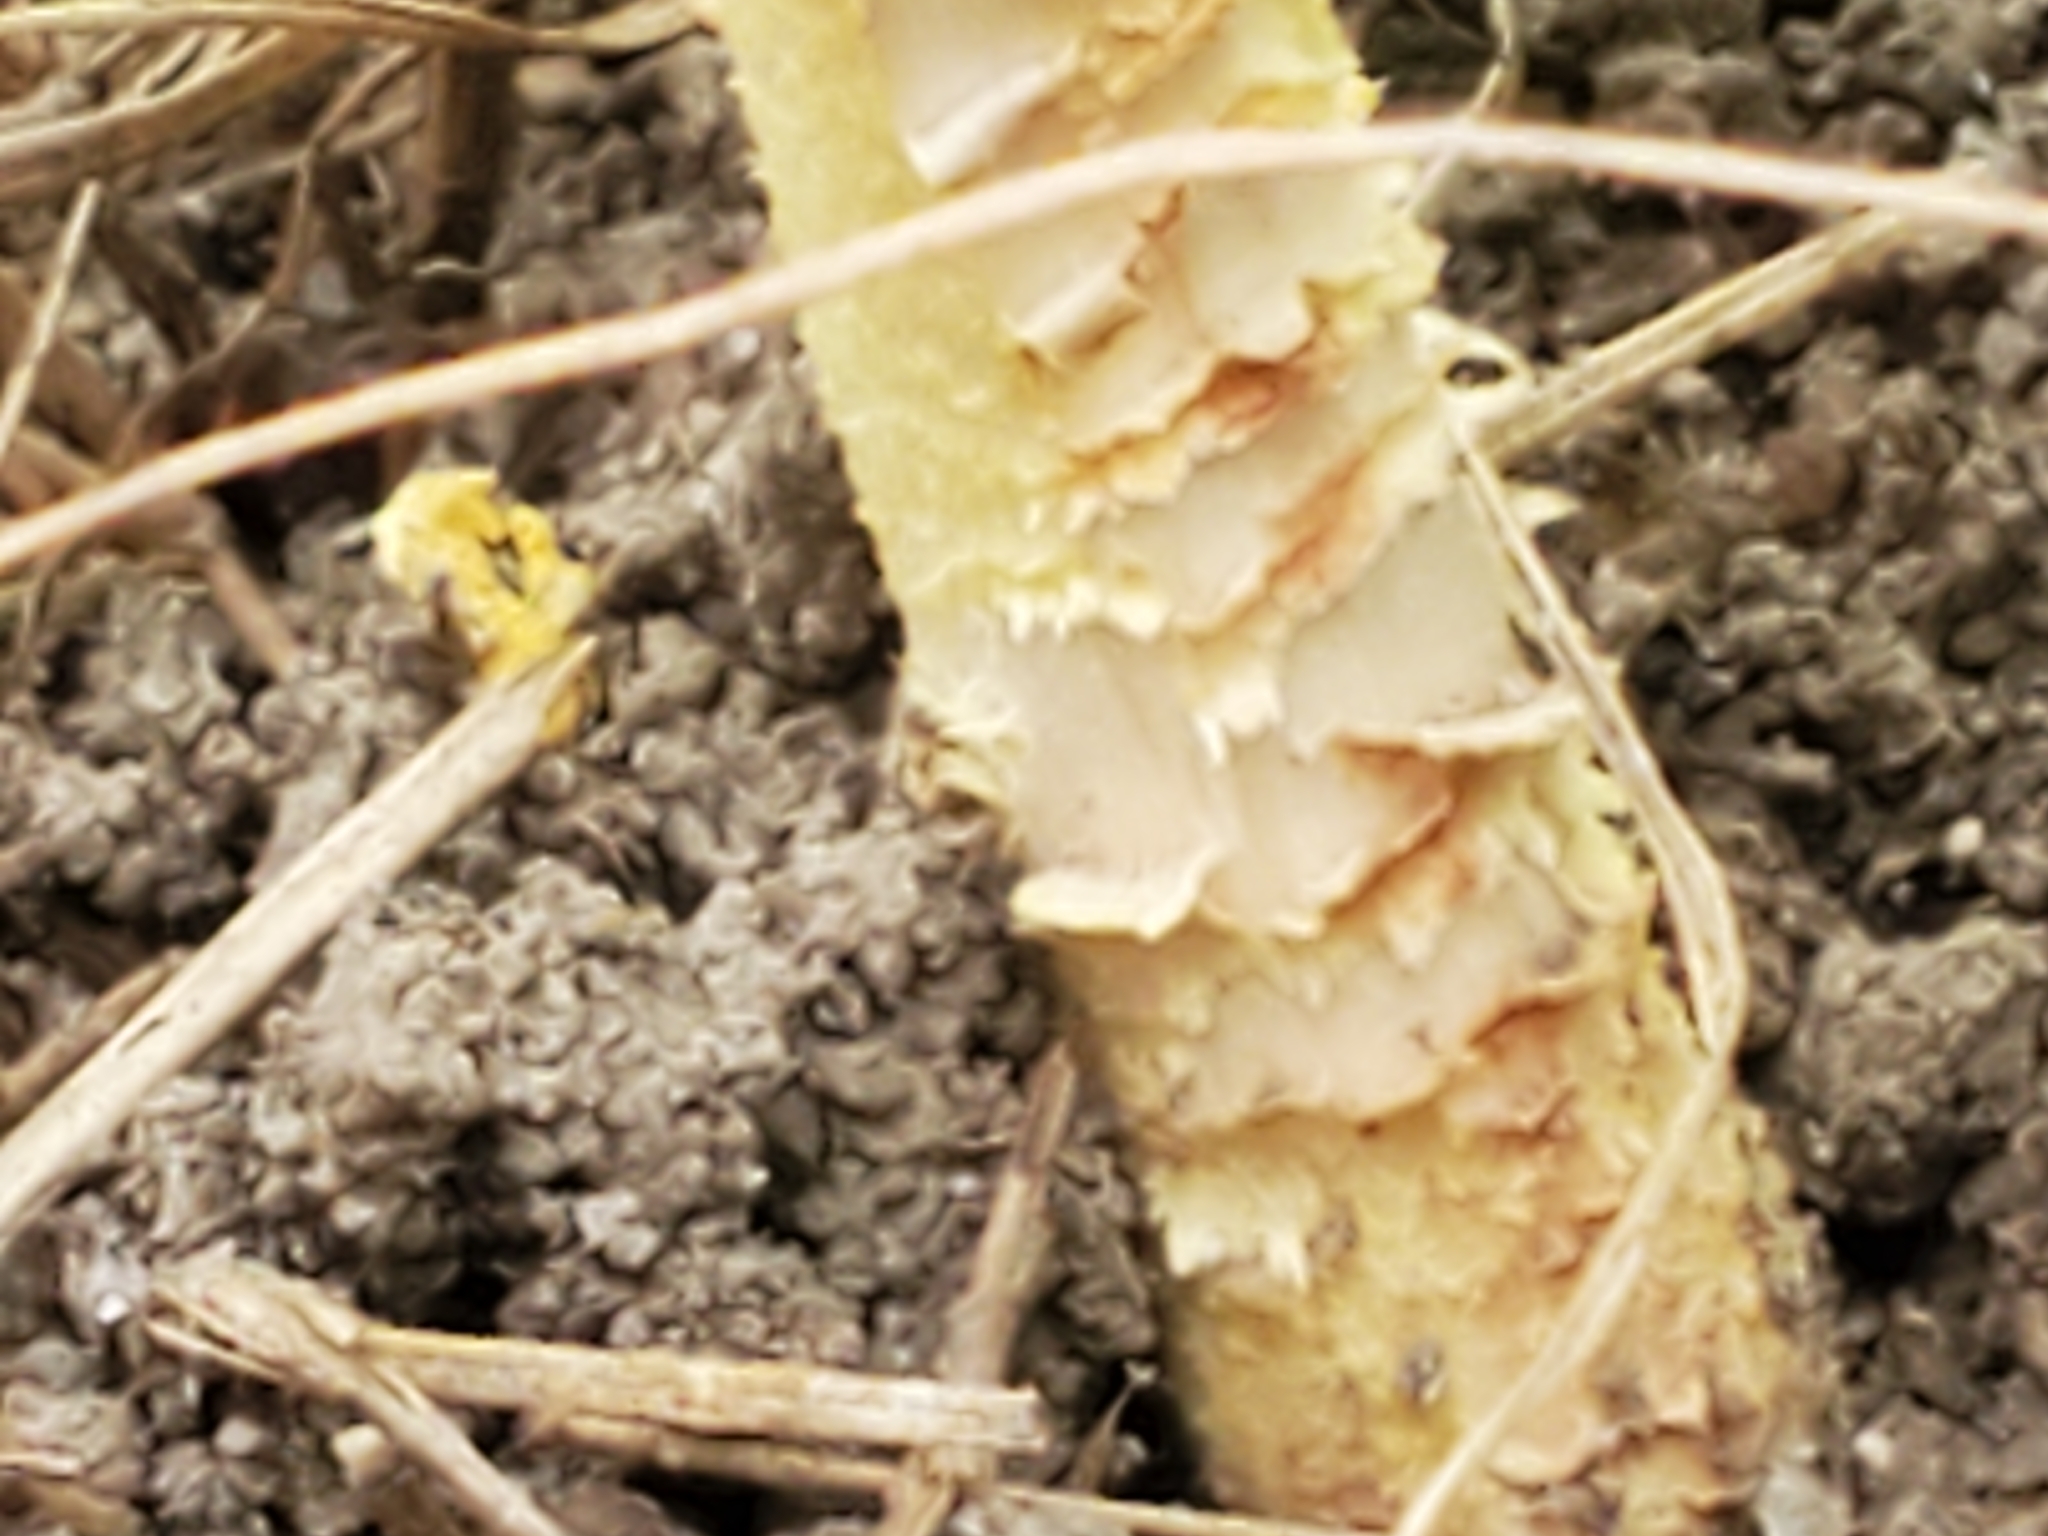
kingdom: Fungi
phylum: Basidiomycota
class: Agaricomycetes
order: Agaricales
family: Amanitaceae
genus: Amanita
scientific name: Amanita flavorubens
